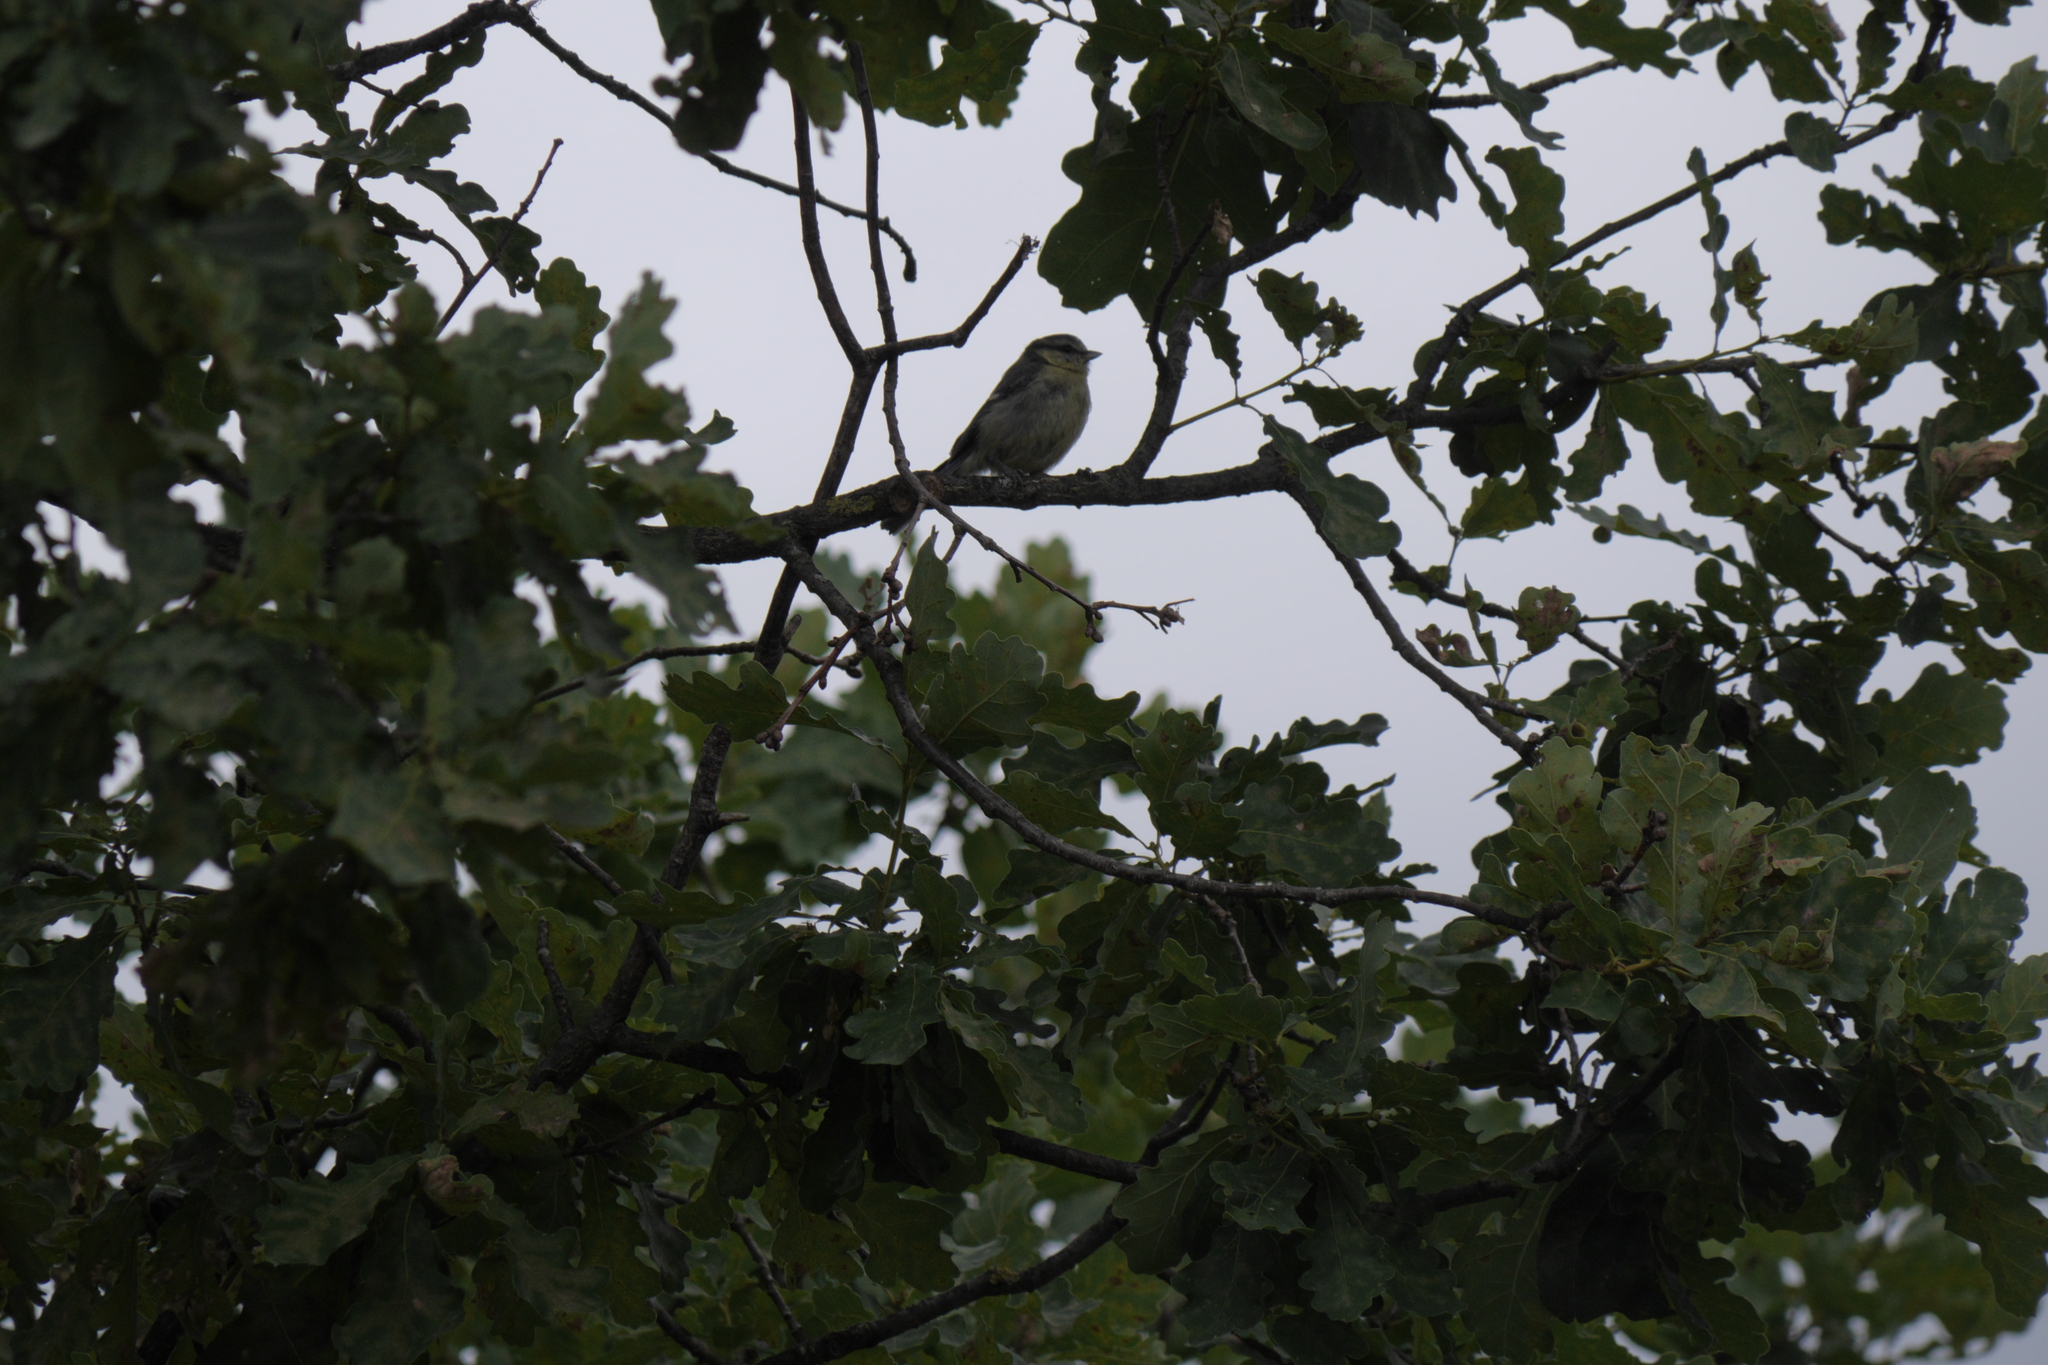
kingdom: Animalia
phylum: Chordata
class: Aves
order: Passeriformes
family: Paridae
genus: Cyanistes
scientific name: Cyanistes caeruleus
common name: Eurasian blue tit
